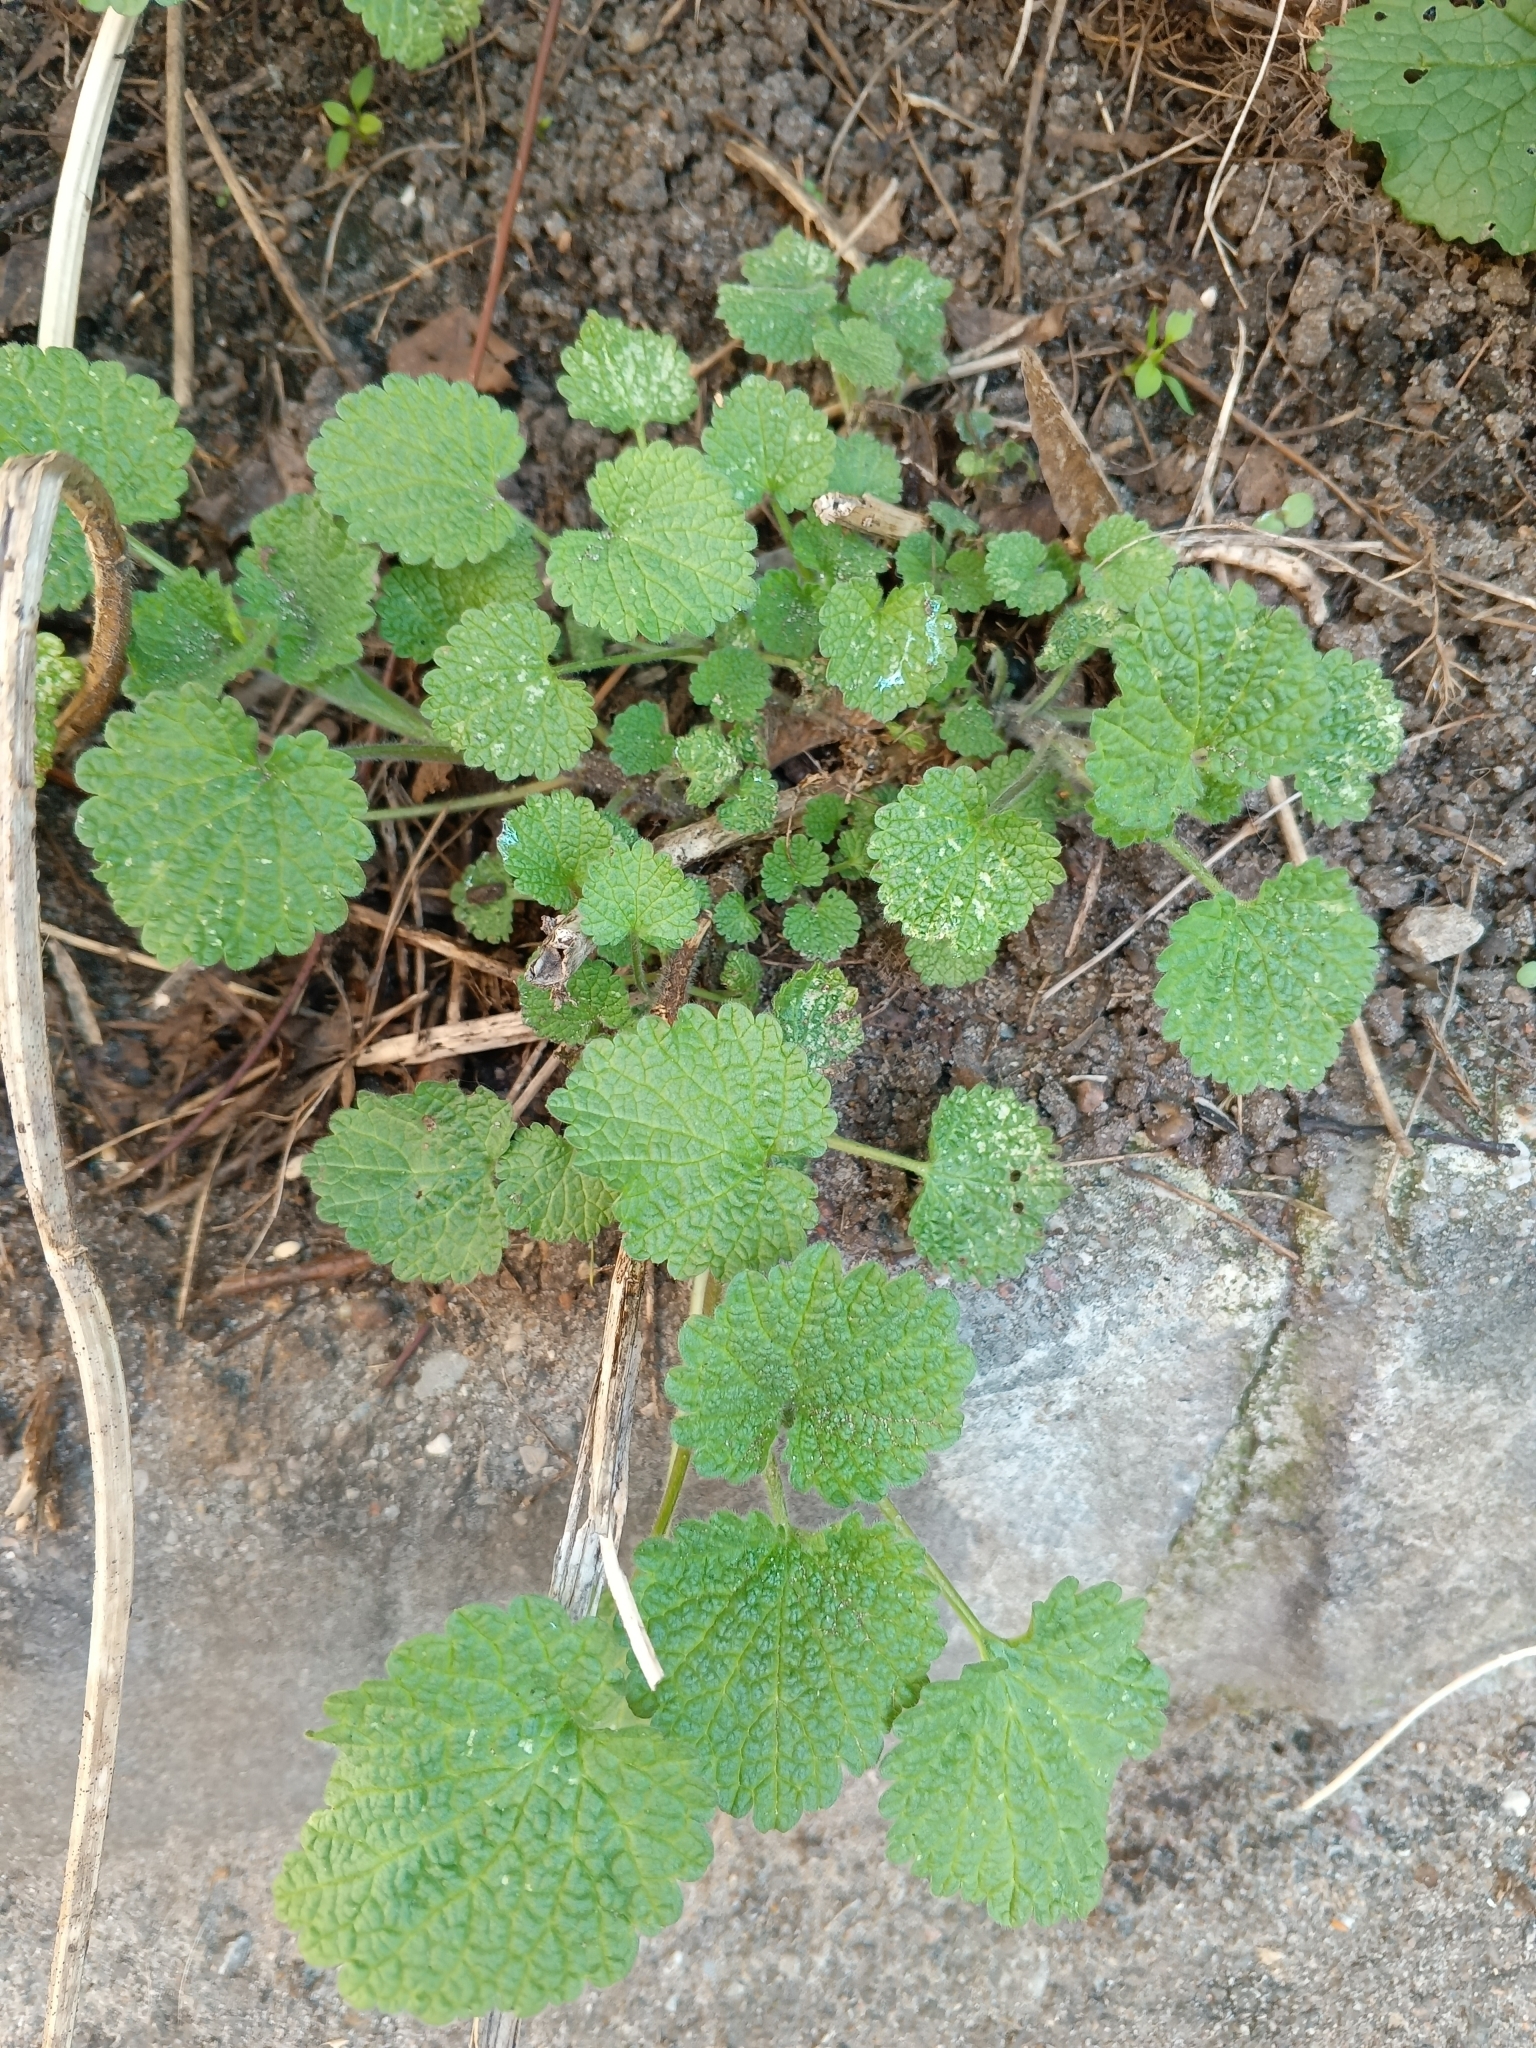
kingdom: Plantae
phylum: Tracheophyta
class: Magnoliopsida
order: Lamiales
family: Lamiaceae
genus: Ballota
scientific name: Ballota nigra
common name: Black horehound
